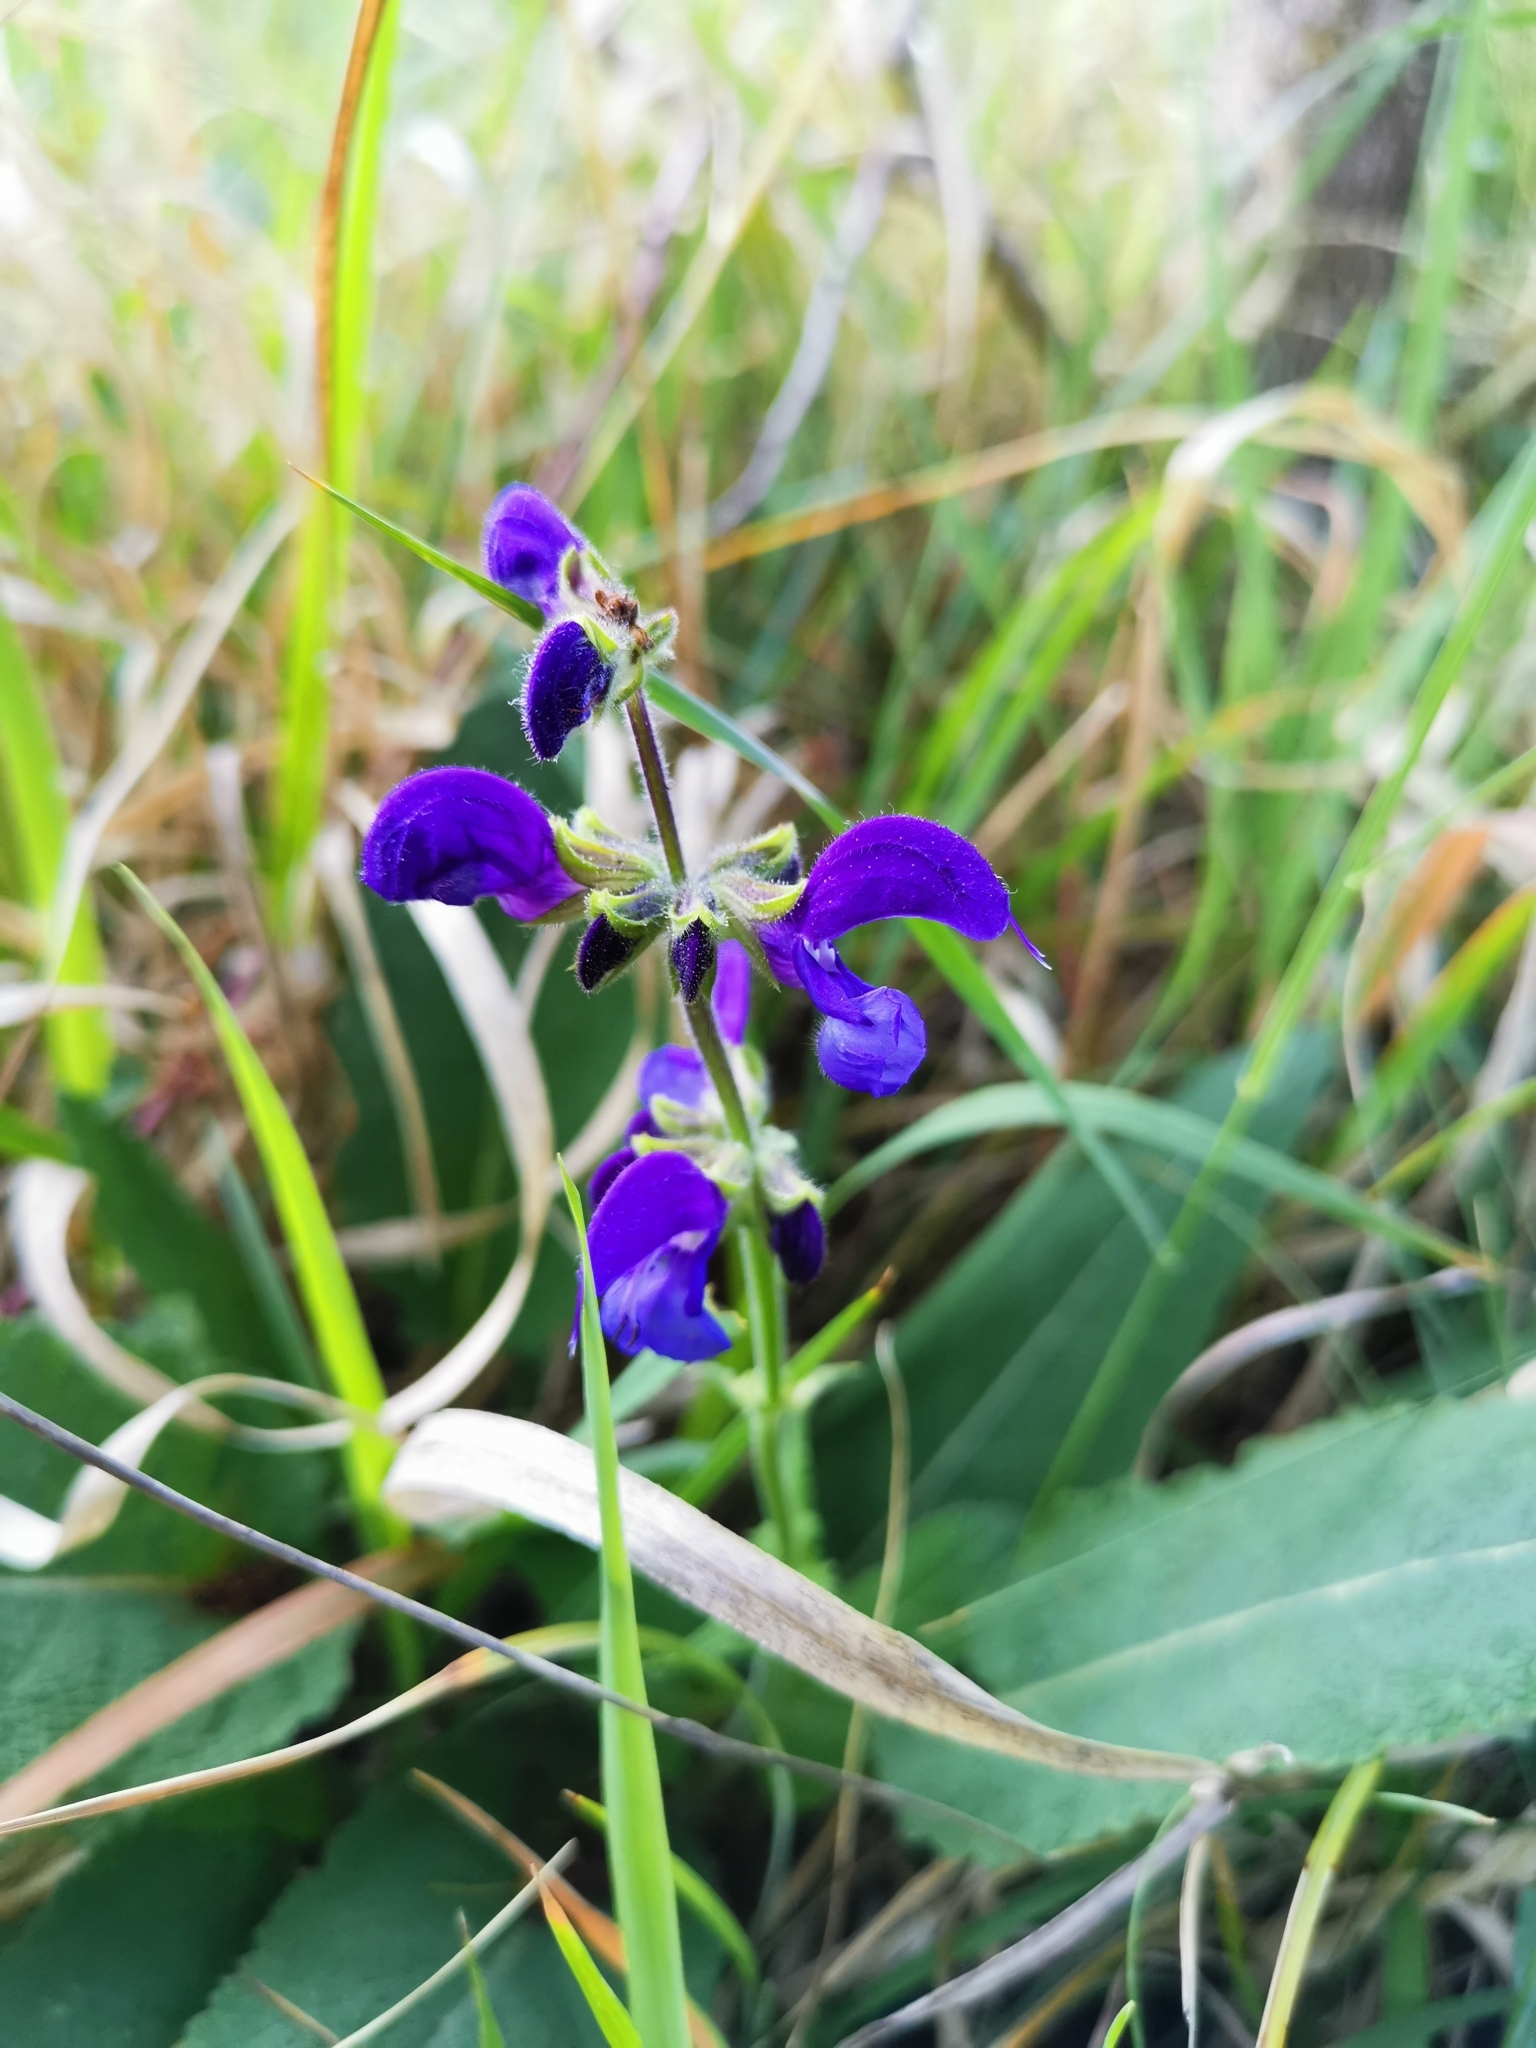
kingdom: Plantae
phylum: Tracheophyta
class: Magnoliopsida
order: Lamiales
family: Lamiaceae
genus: Salvia
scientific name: Salvia pratensis
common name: Meadow sage
